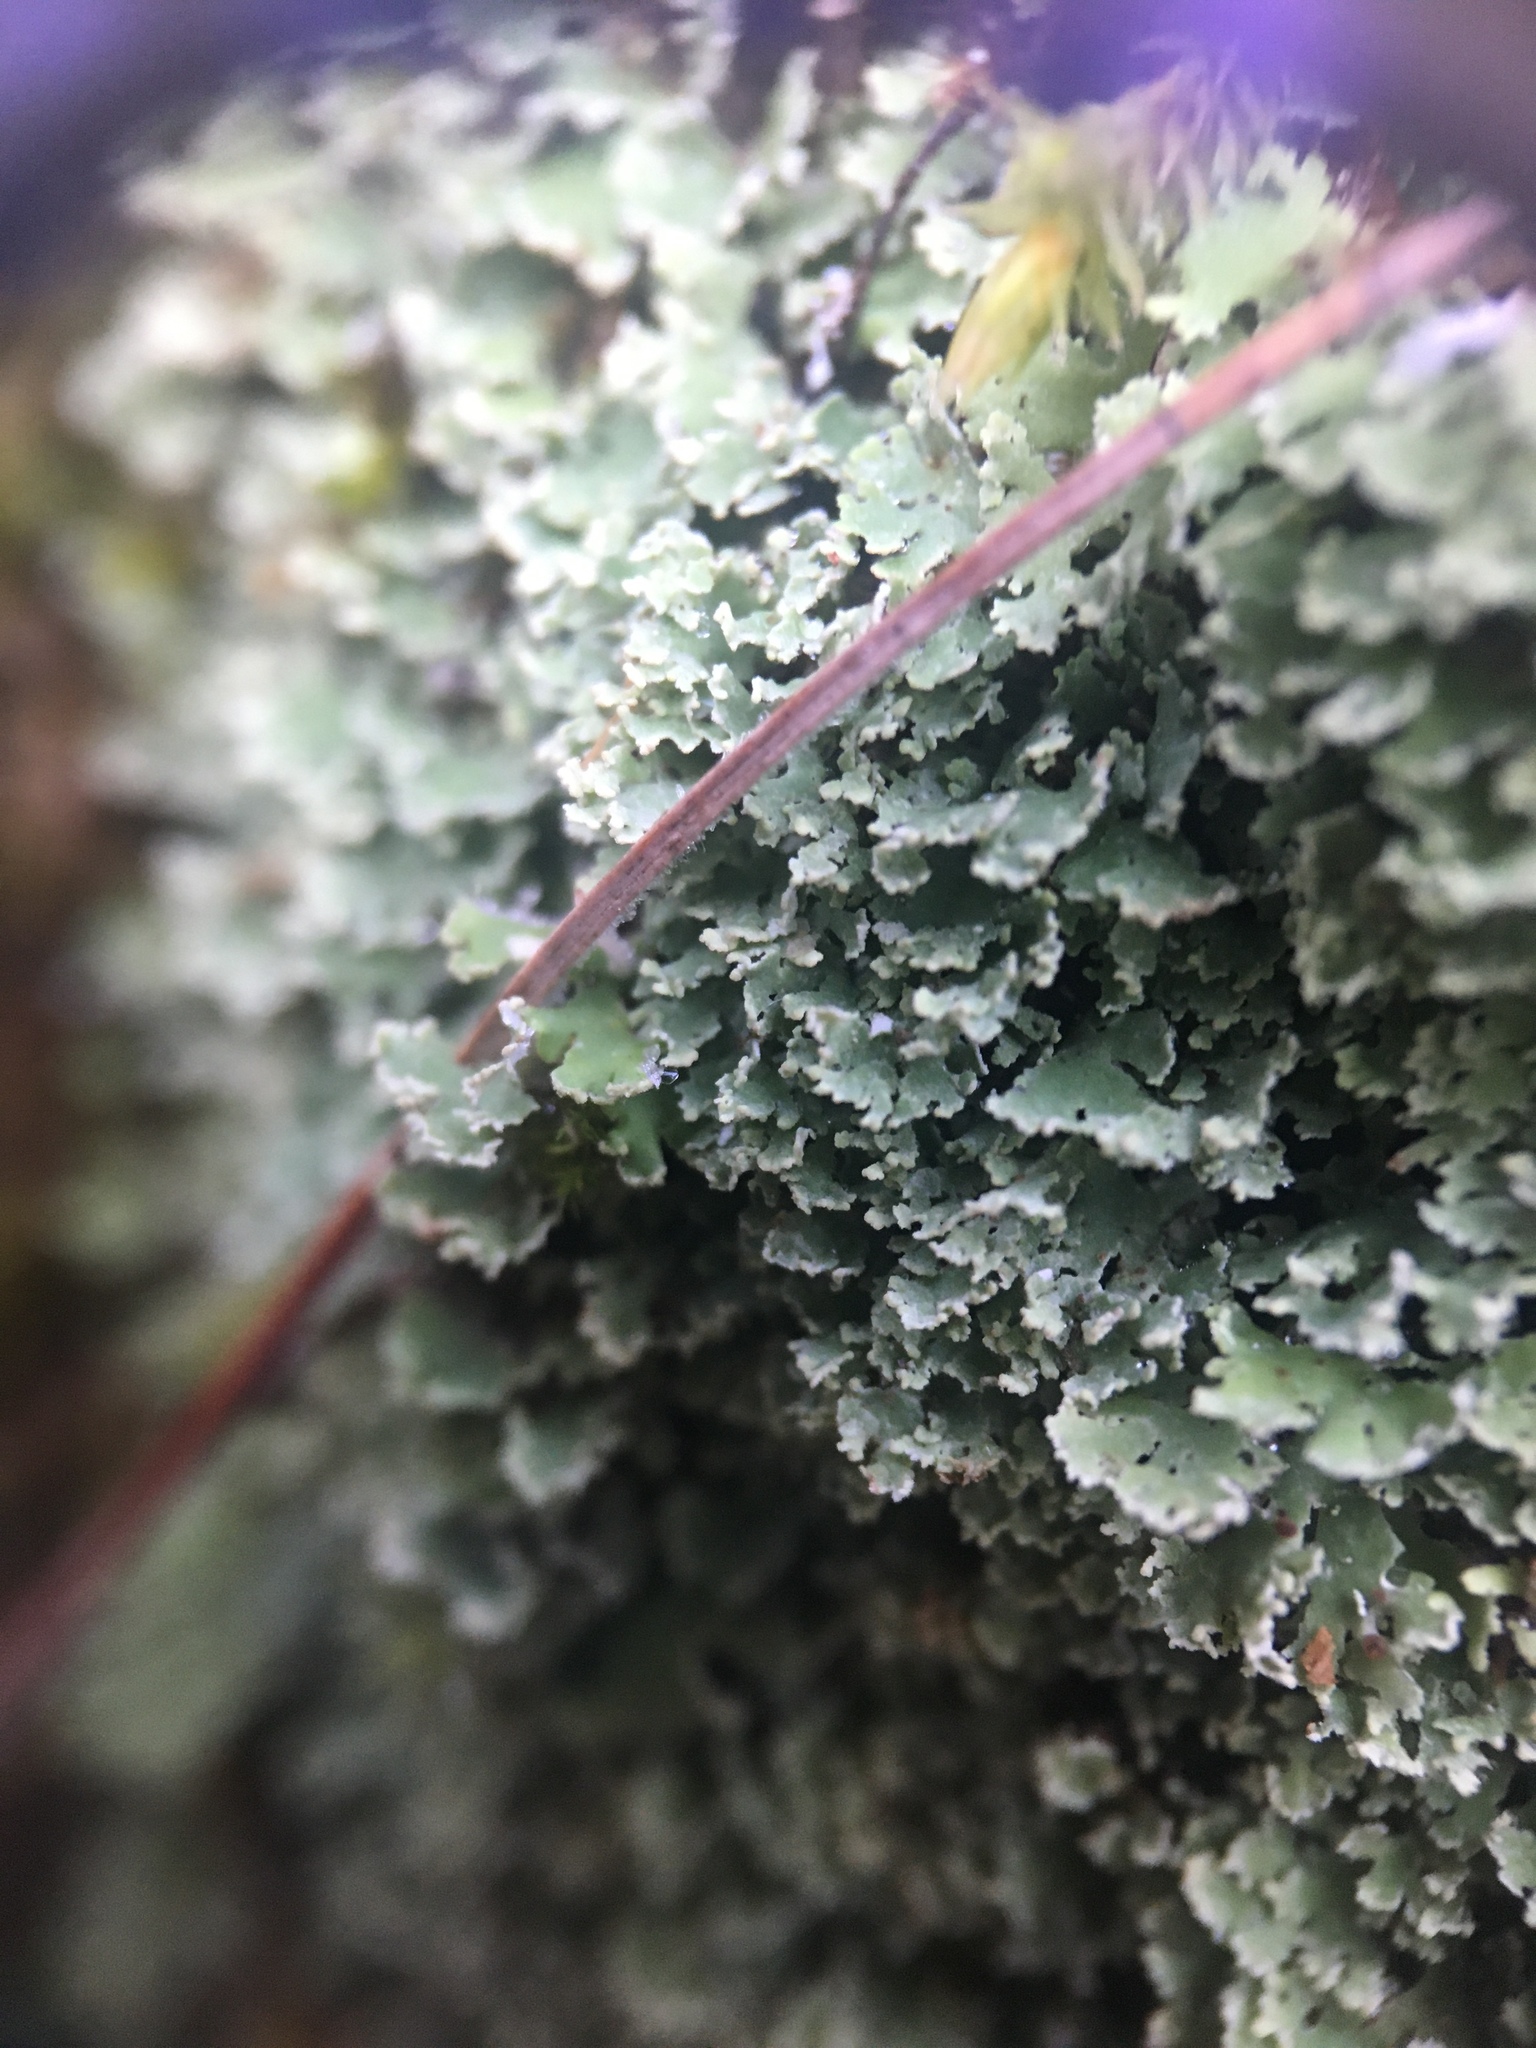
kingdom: Fungi
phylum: Ascomycota
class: Lecanoromycetes
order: Lecanorales
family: Cladoniaceae
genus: Cladonia
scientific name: Cladonia coniocraea
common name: Common powderhorn
